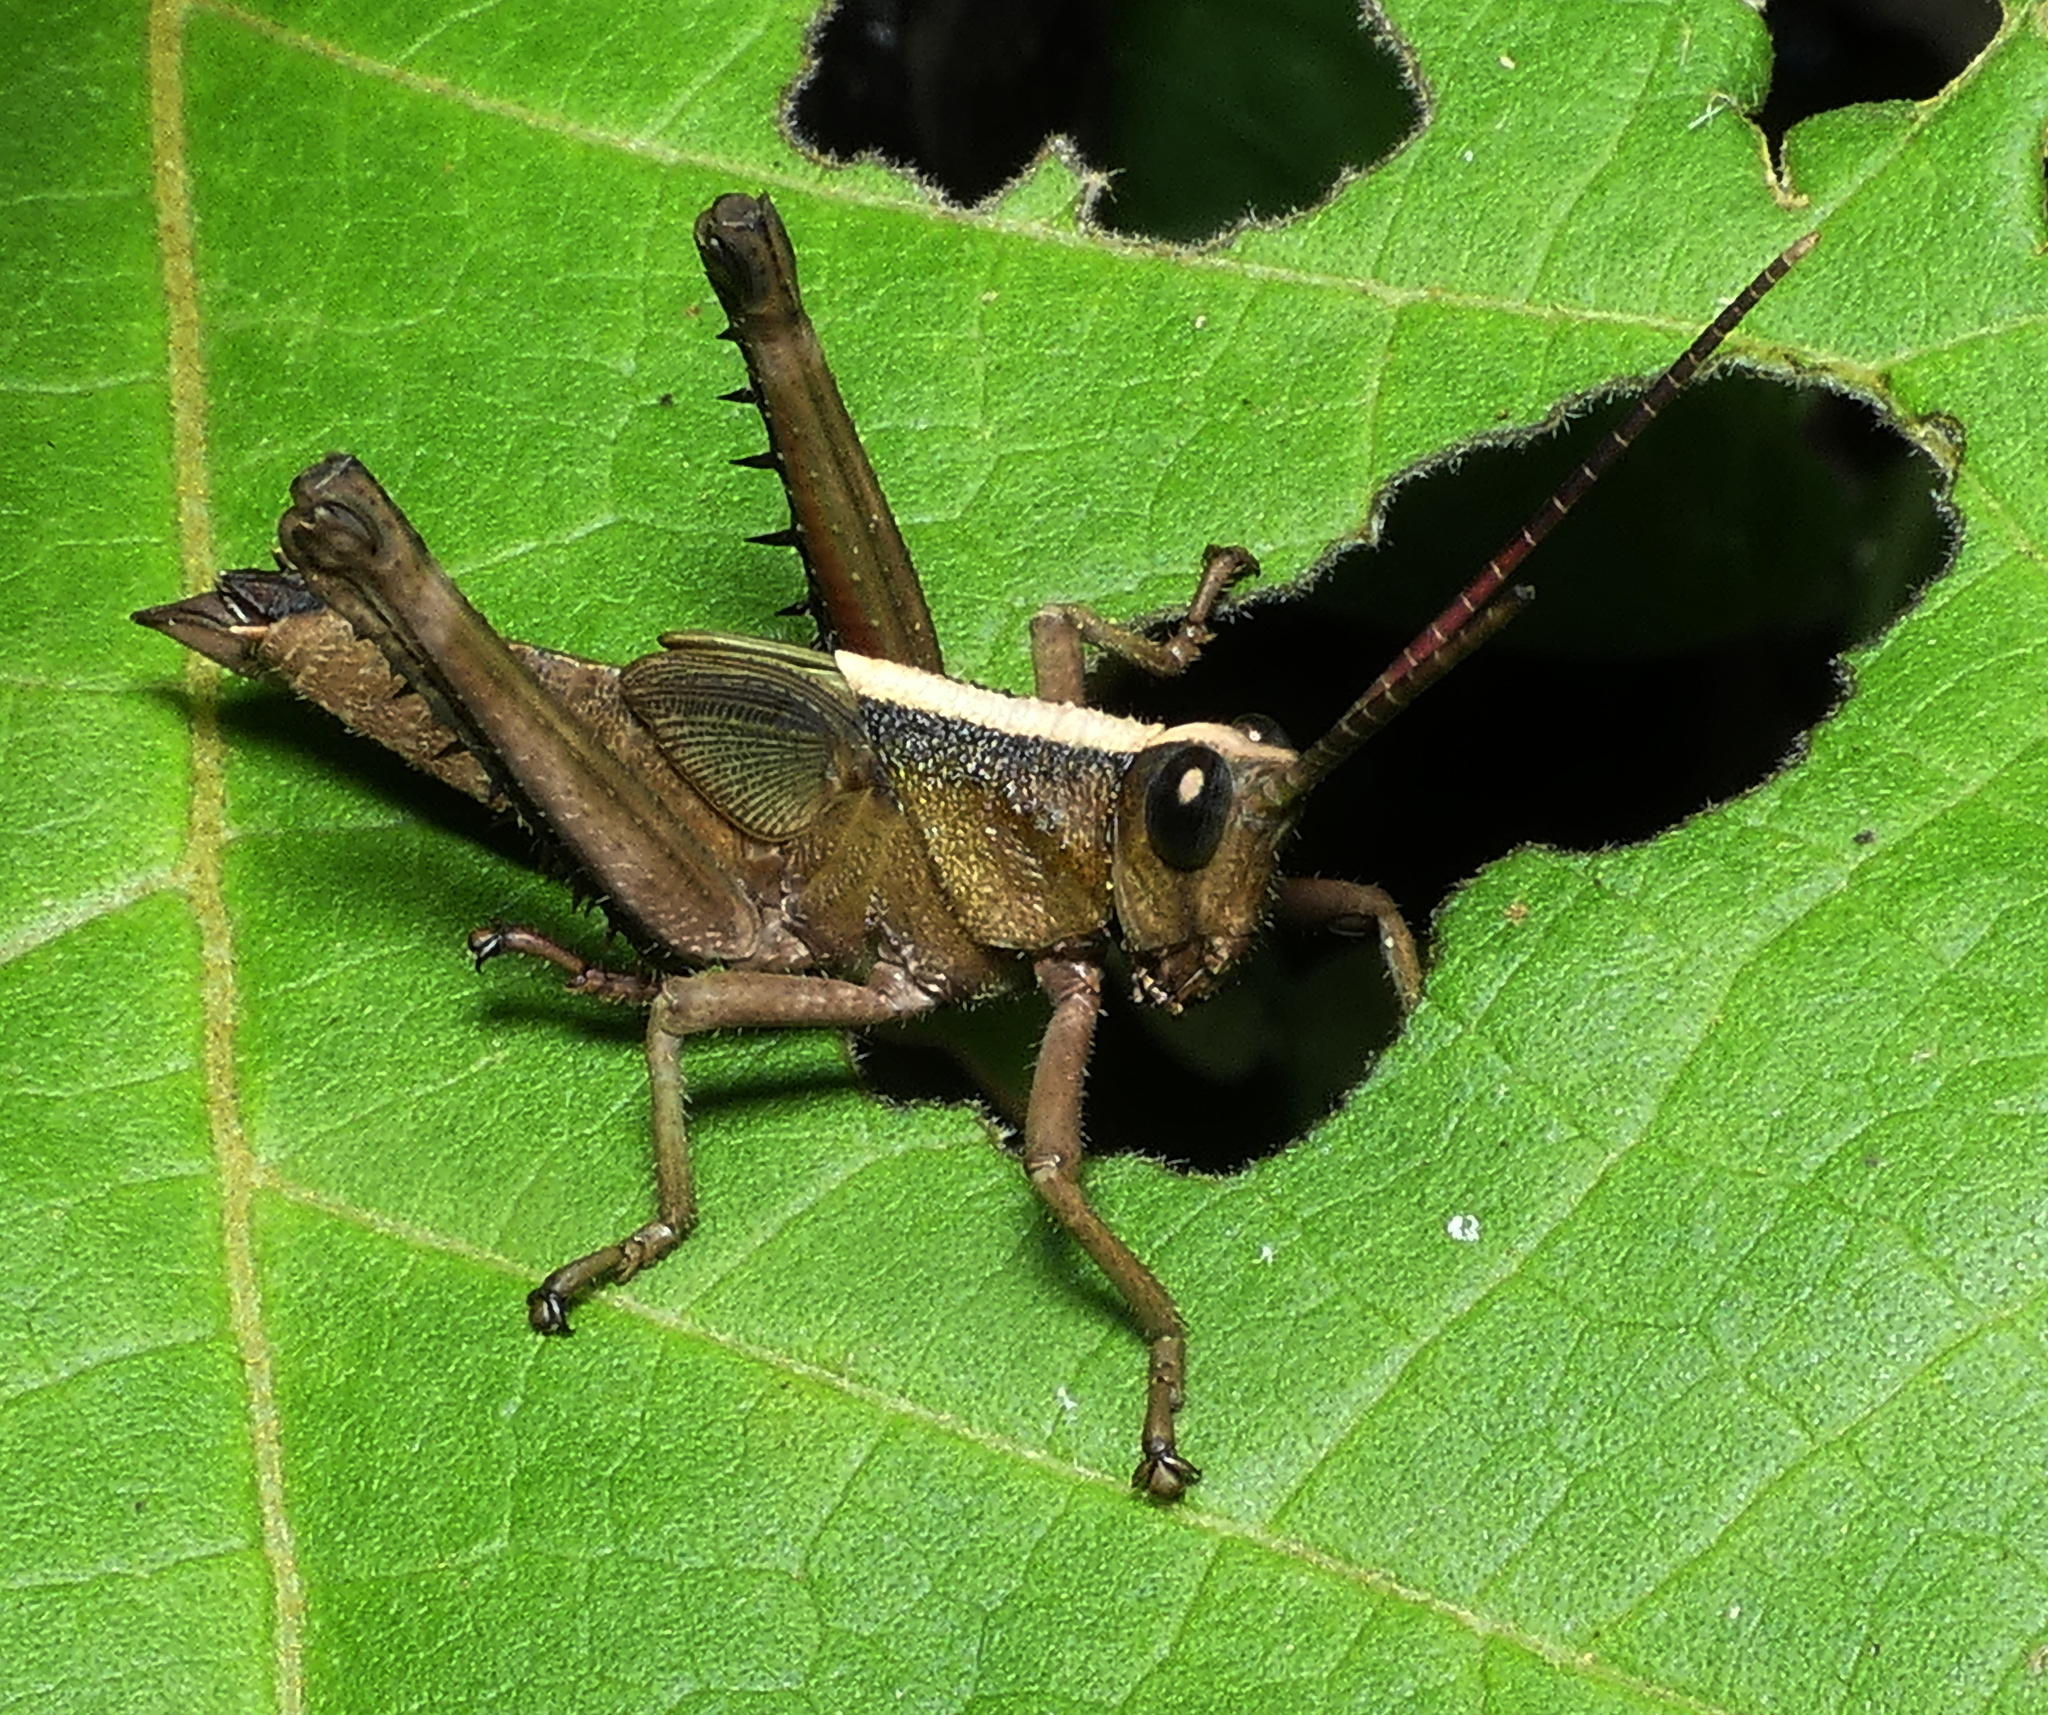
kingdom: Animalia
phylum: Arthropoda
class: Insecta
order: Orthoptera
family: Romaleidae
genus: Agriacris
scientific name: Agriacris auripennis
